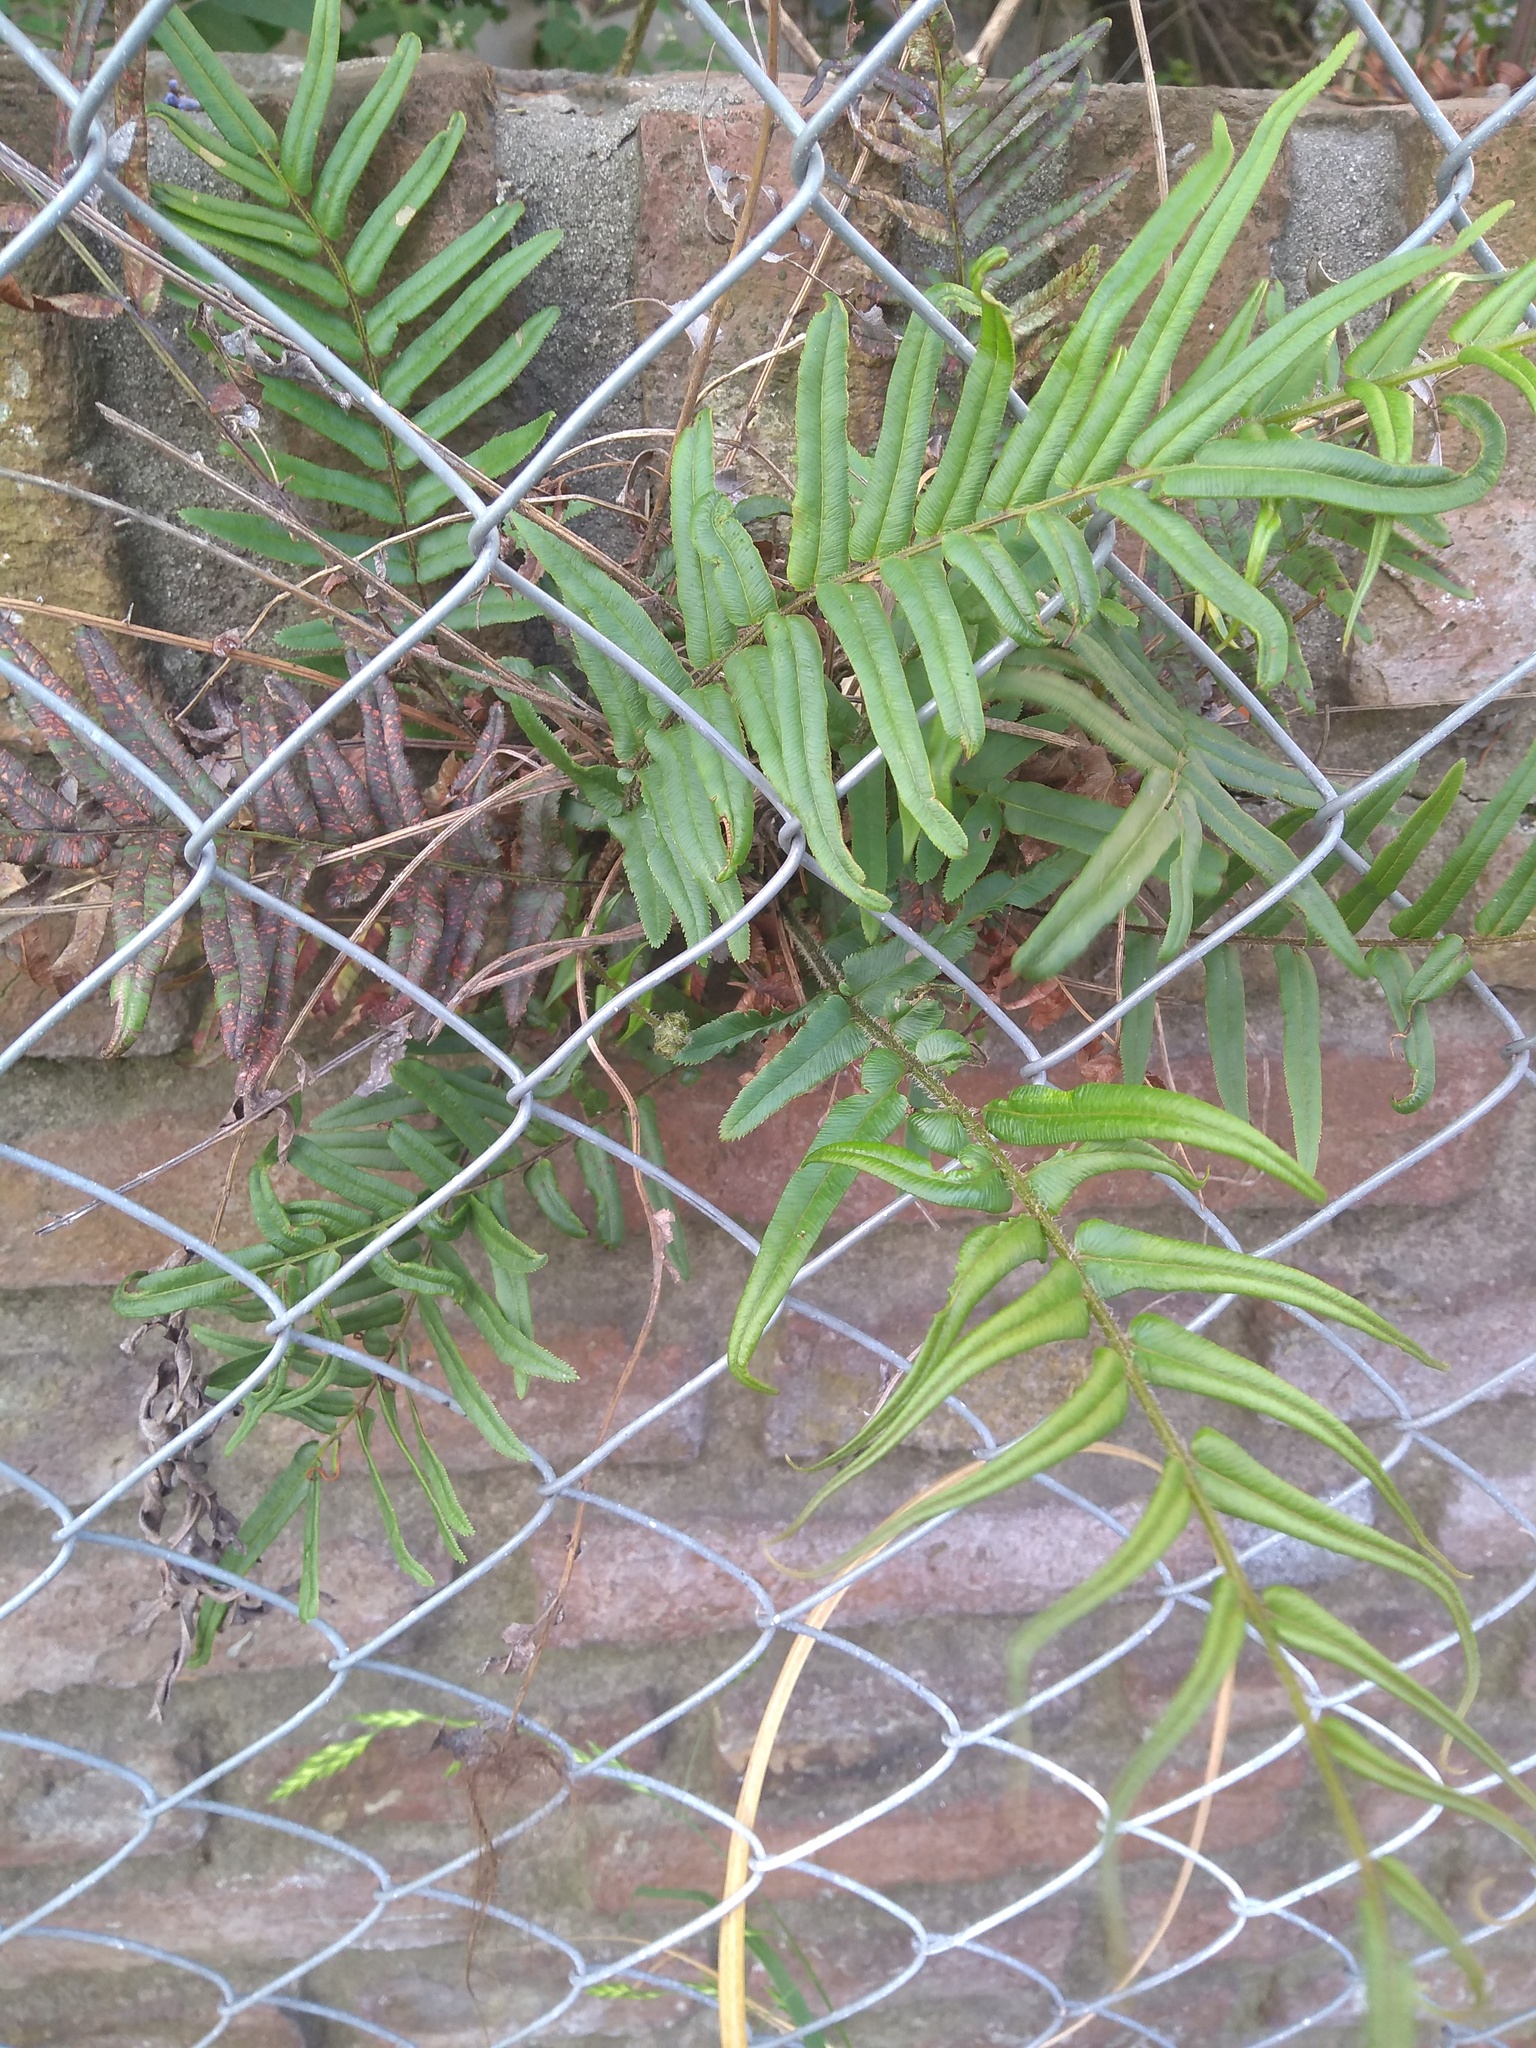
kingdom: Plantae
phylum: Tracheophyta
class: Polypodiopsida
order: Polypodiales
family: Pteridaceae
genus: Pteris
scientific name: Pteris vittata
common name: Ladder brake
